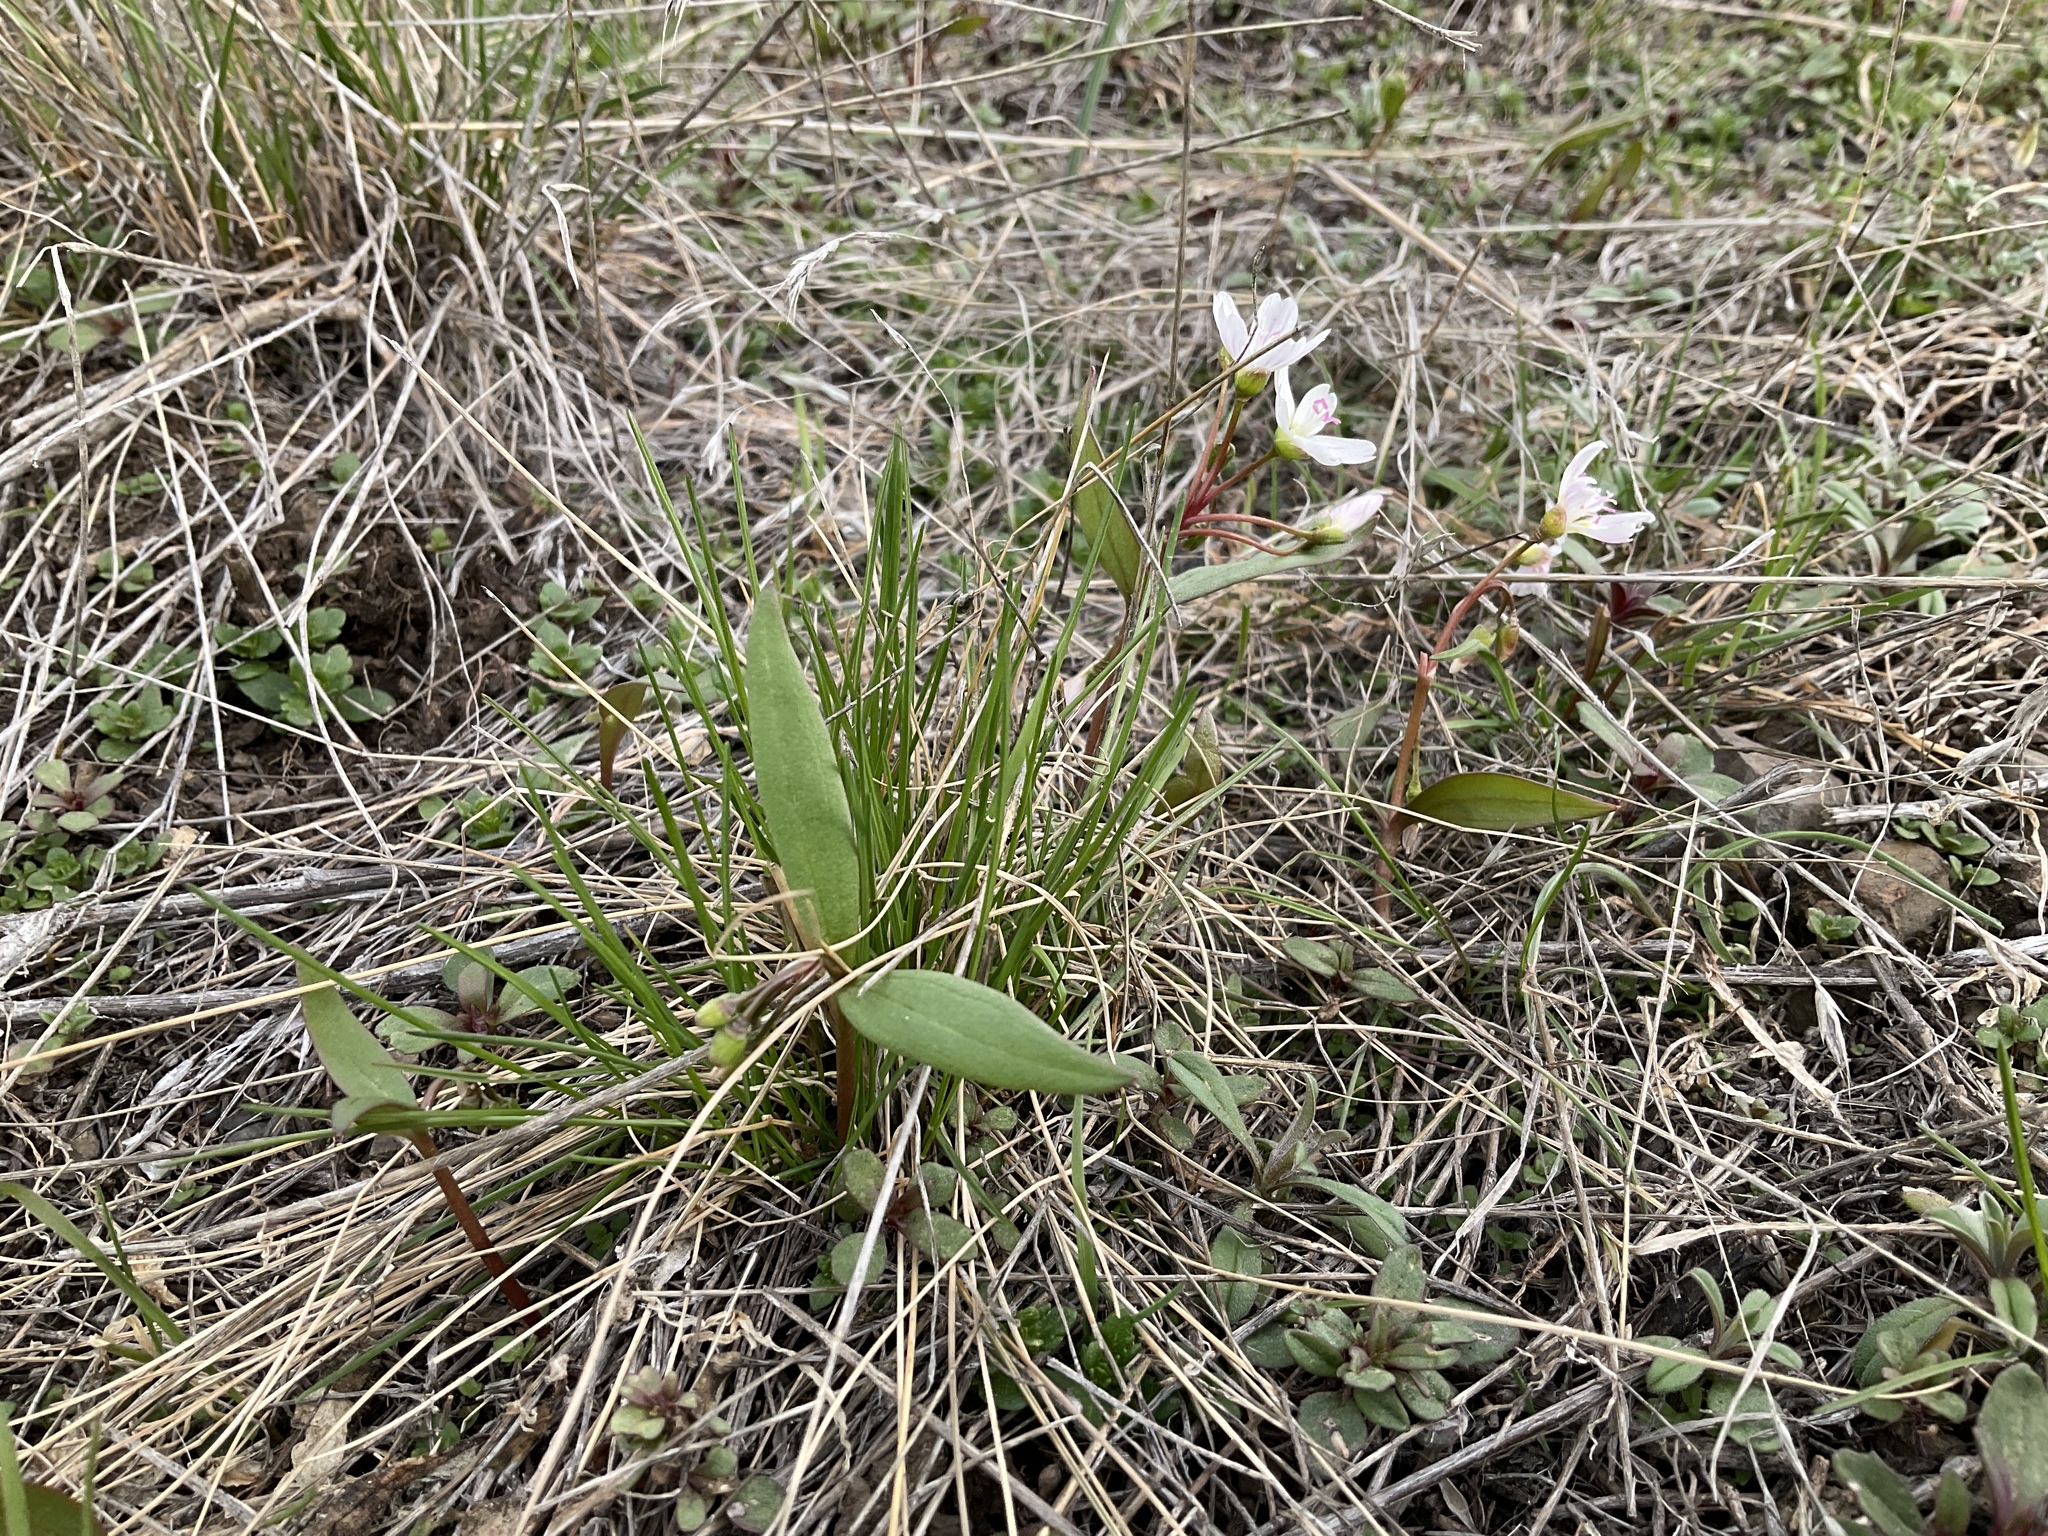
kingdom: Plantae
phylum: Tracheophyta
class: Magnoliopsida
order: Caryophyllales
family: Montiaceae
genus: Claytonia
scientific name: Claytonia lanceolata
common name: Western spring-beauty
